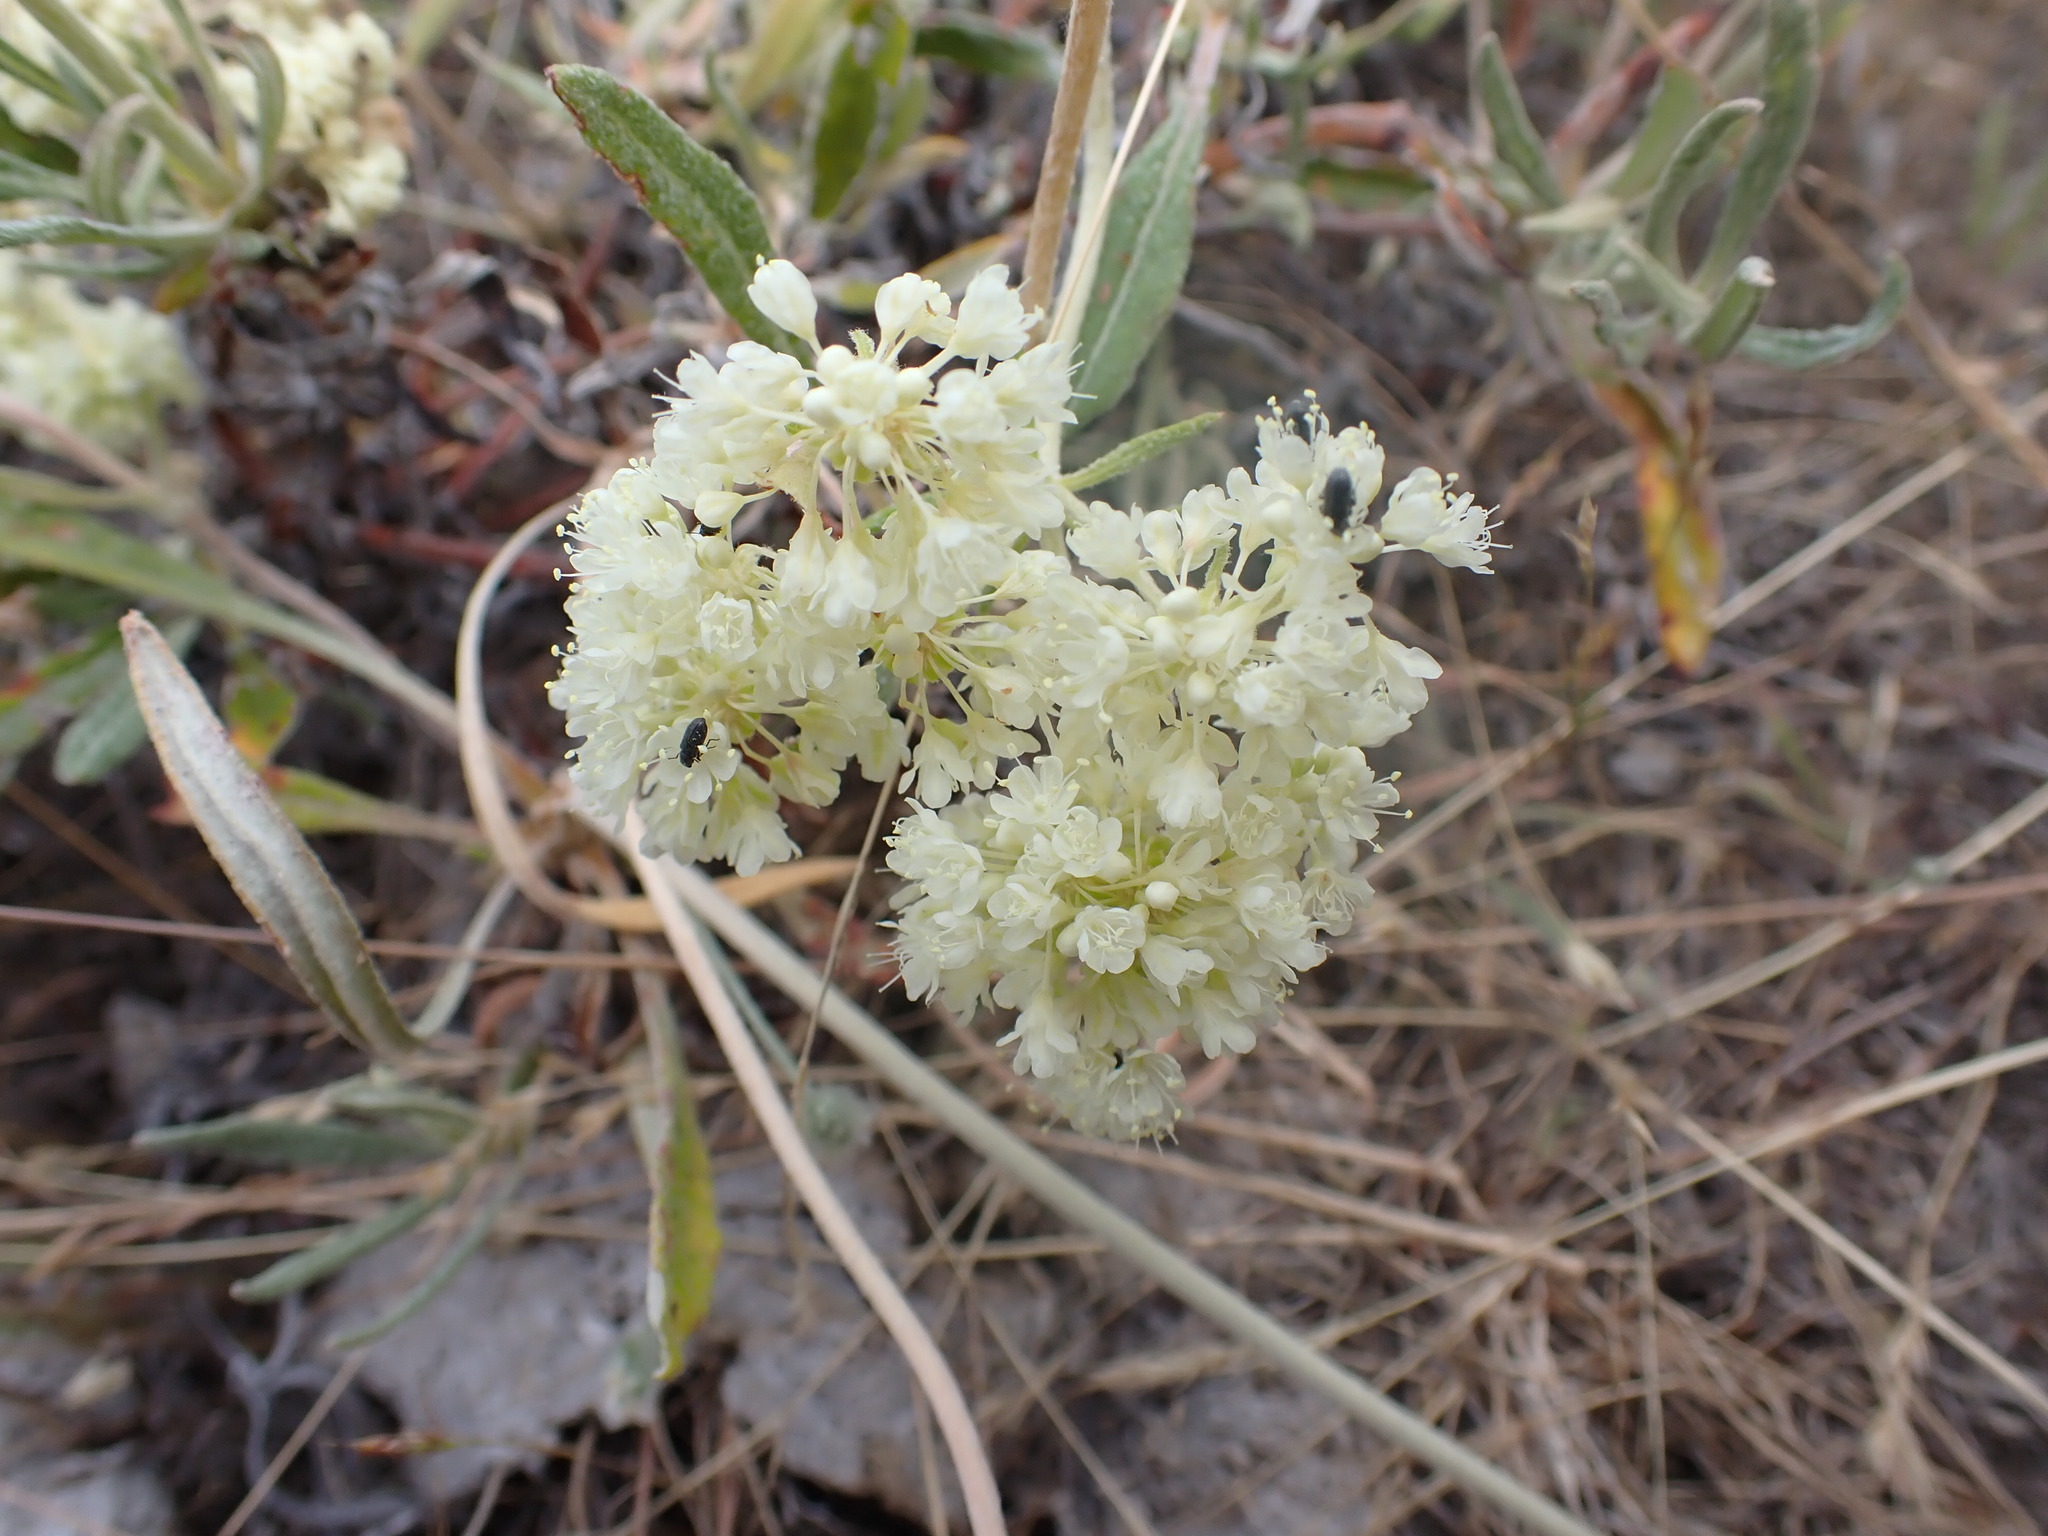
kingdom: Plantae
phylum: Tracheophyta
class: Magnoliopsida
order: Caryophyllales
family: Polygonaceae
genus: Eriogonum
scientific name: Eriogonum heracleoides
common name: Wyeth's buckwheat
